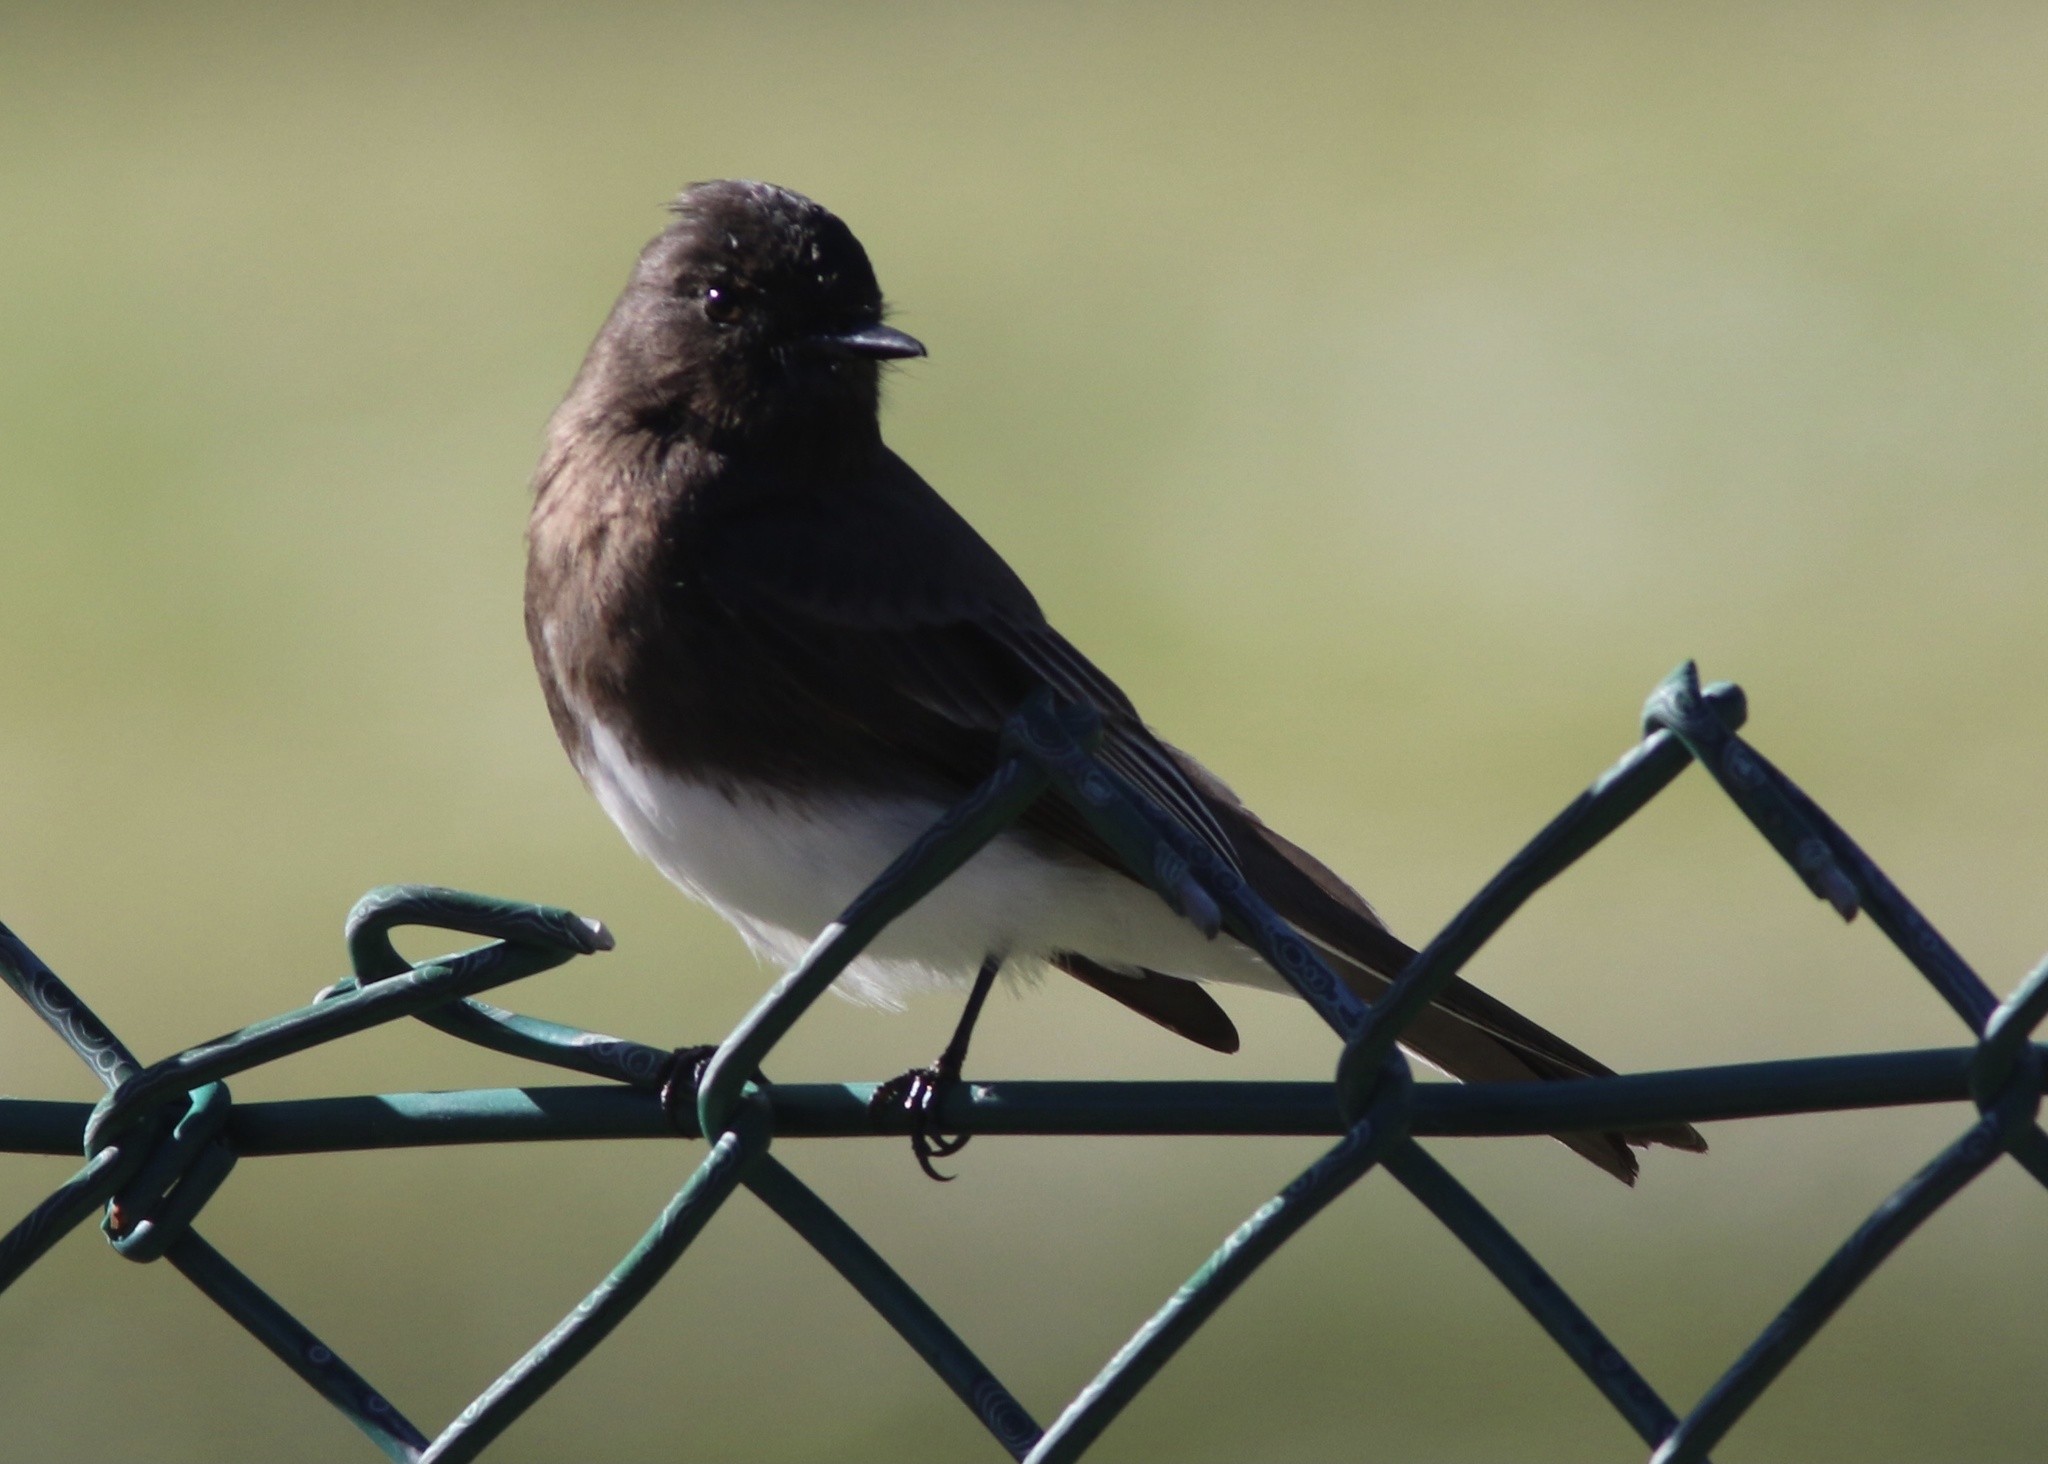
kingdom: Animalia
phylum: Chordata
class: Aves
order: Passeriformes
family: Tyrannidae
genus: Sayornis
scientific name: Sayornis nigricans
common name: Black phoebe
